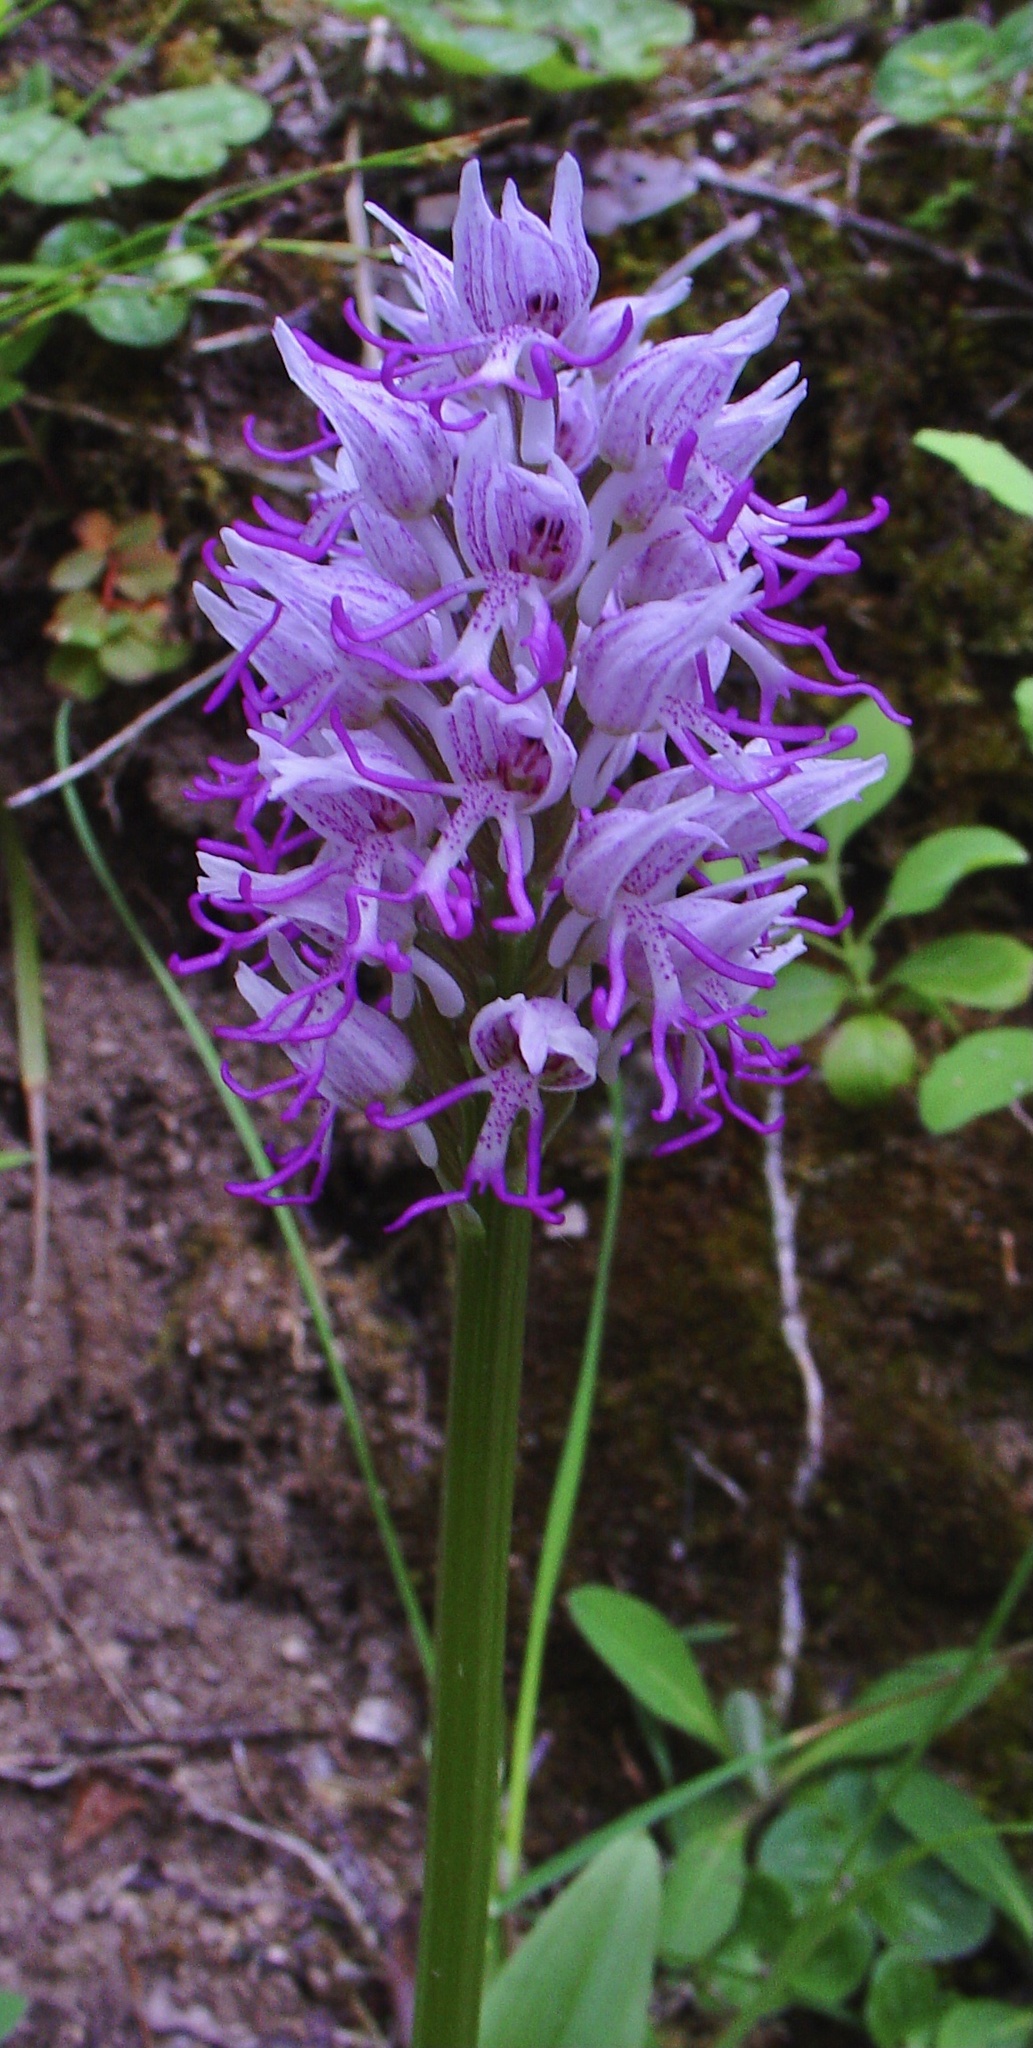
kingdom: Plantae
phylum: Tracheophyta
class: Liliopsida
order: Asparagales
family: Orchidaceae
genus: Orchis
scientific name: Orchis simia
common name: Monkey orchid
